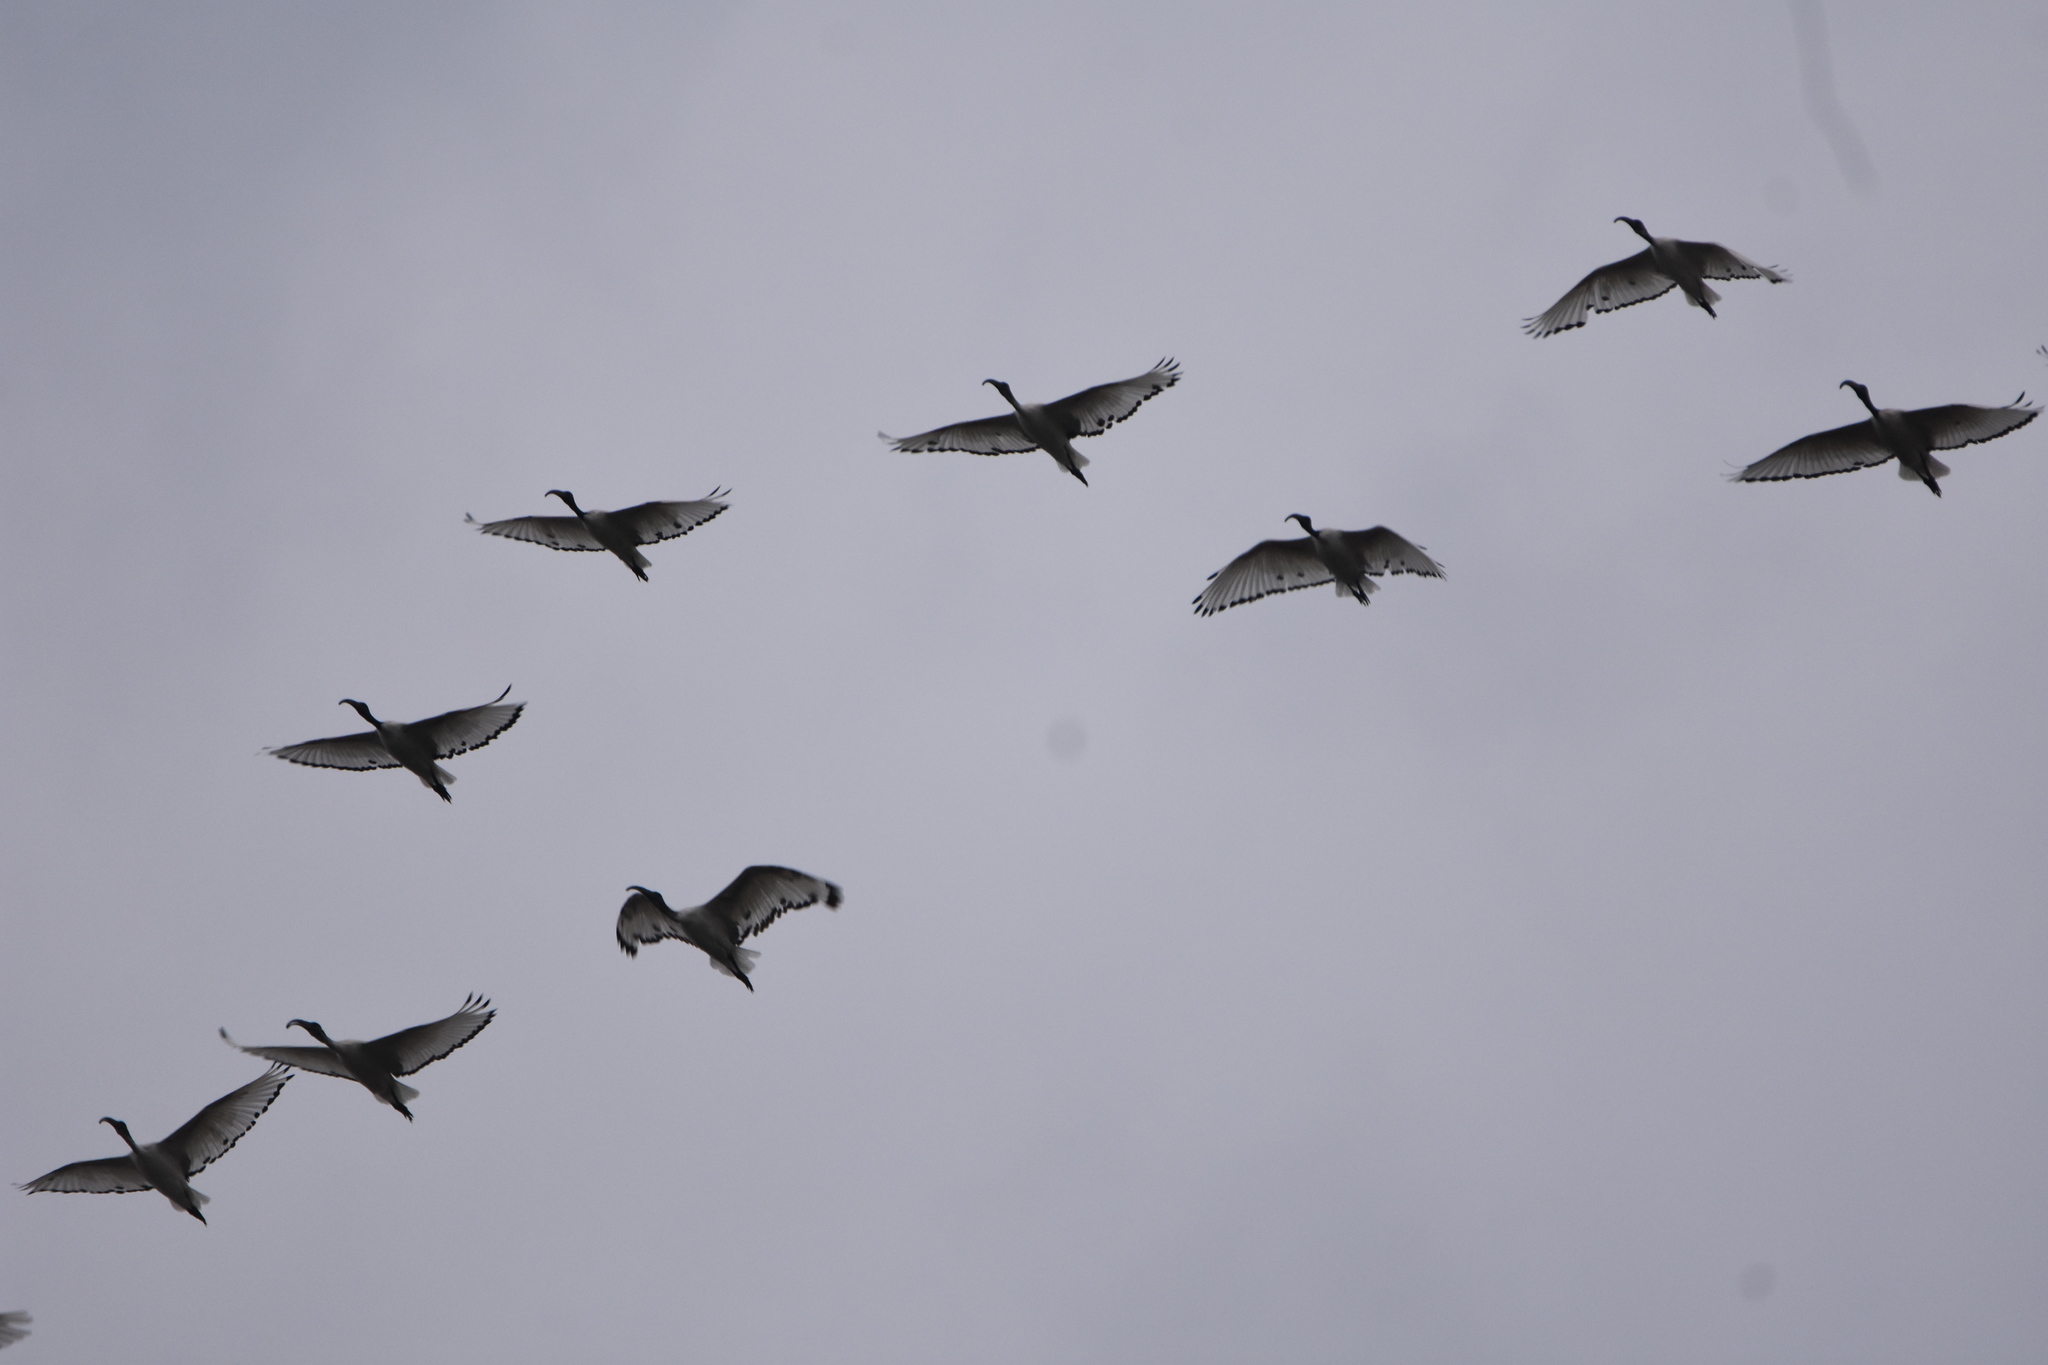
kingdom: Animalia
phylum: Chordata
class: Aves
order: Pelecaniformes
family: Threskiornithidae
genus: Threskiornis
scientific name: Threskiornis aethiopicus
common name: Sacred ibis
